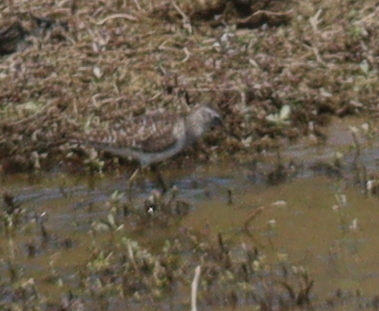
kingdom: Animalia
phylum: Chordata
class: Aves
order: Charadriiformes
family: Scolopacidae
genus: Tringa
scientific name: Tringa glareola
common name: Wood sandpiper
